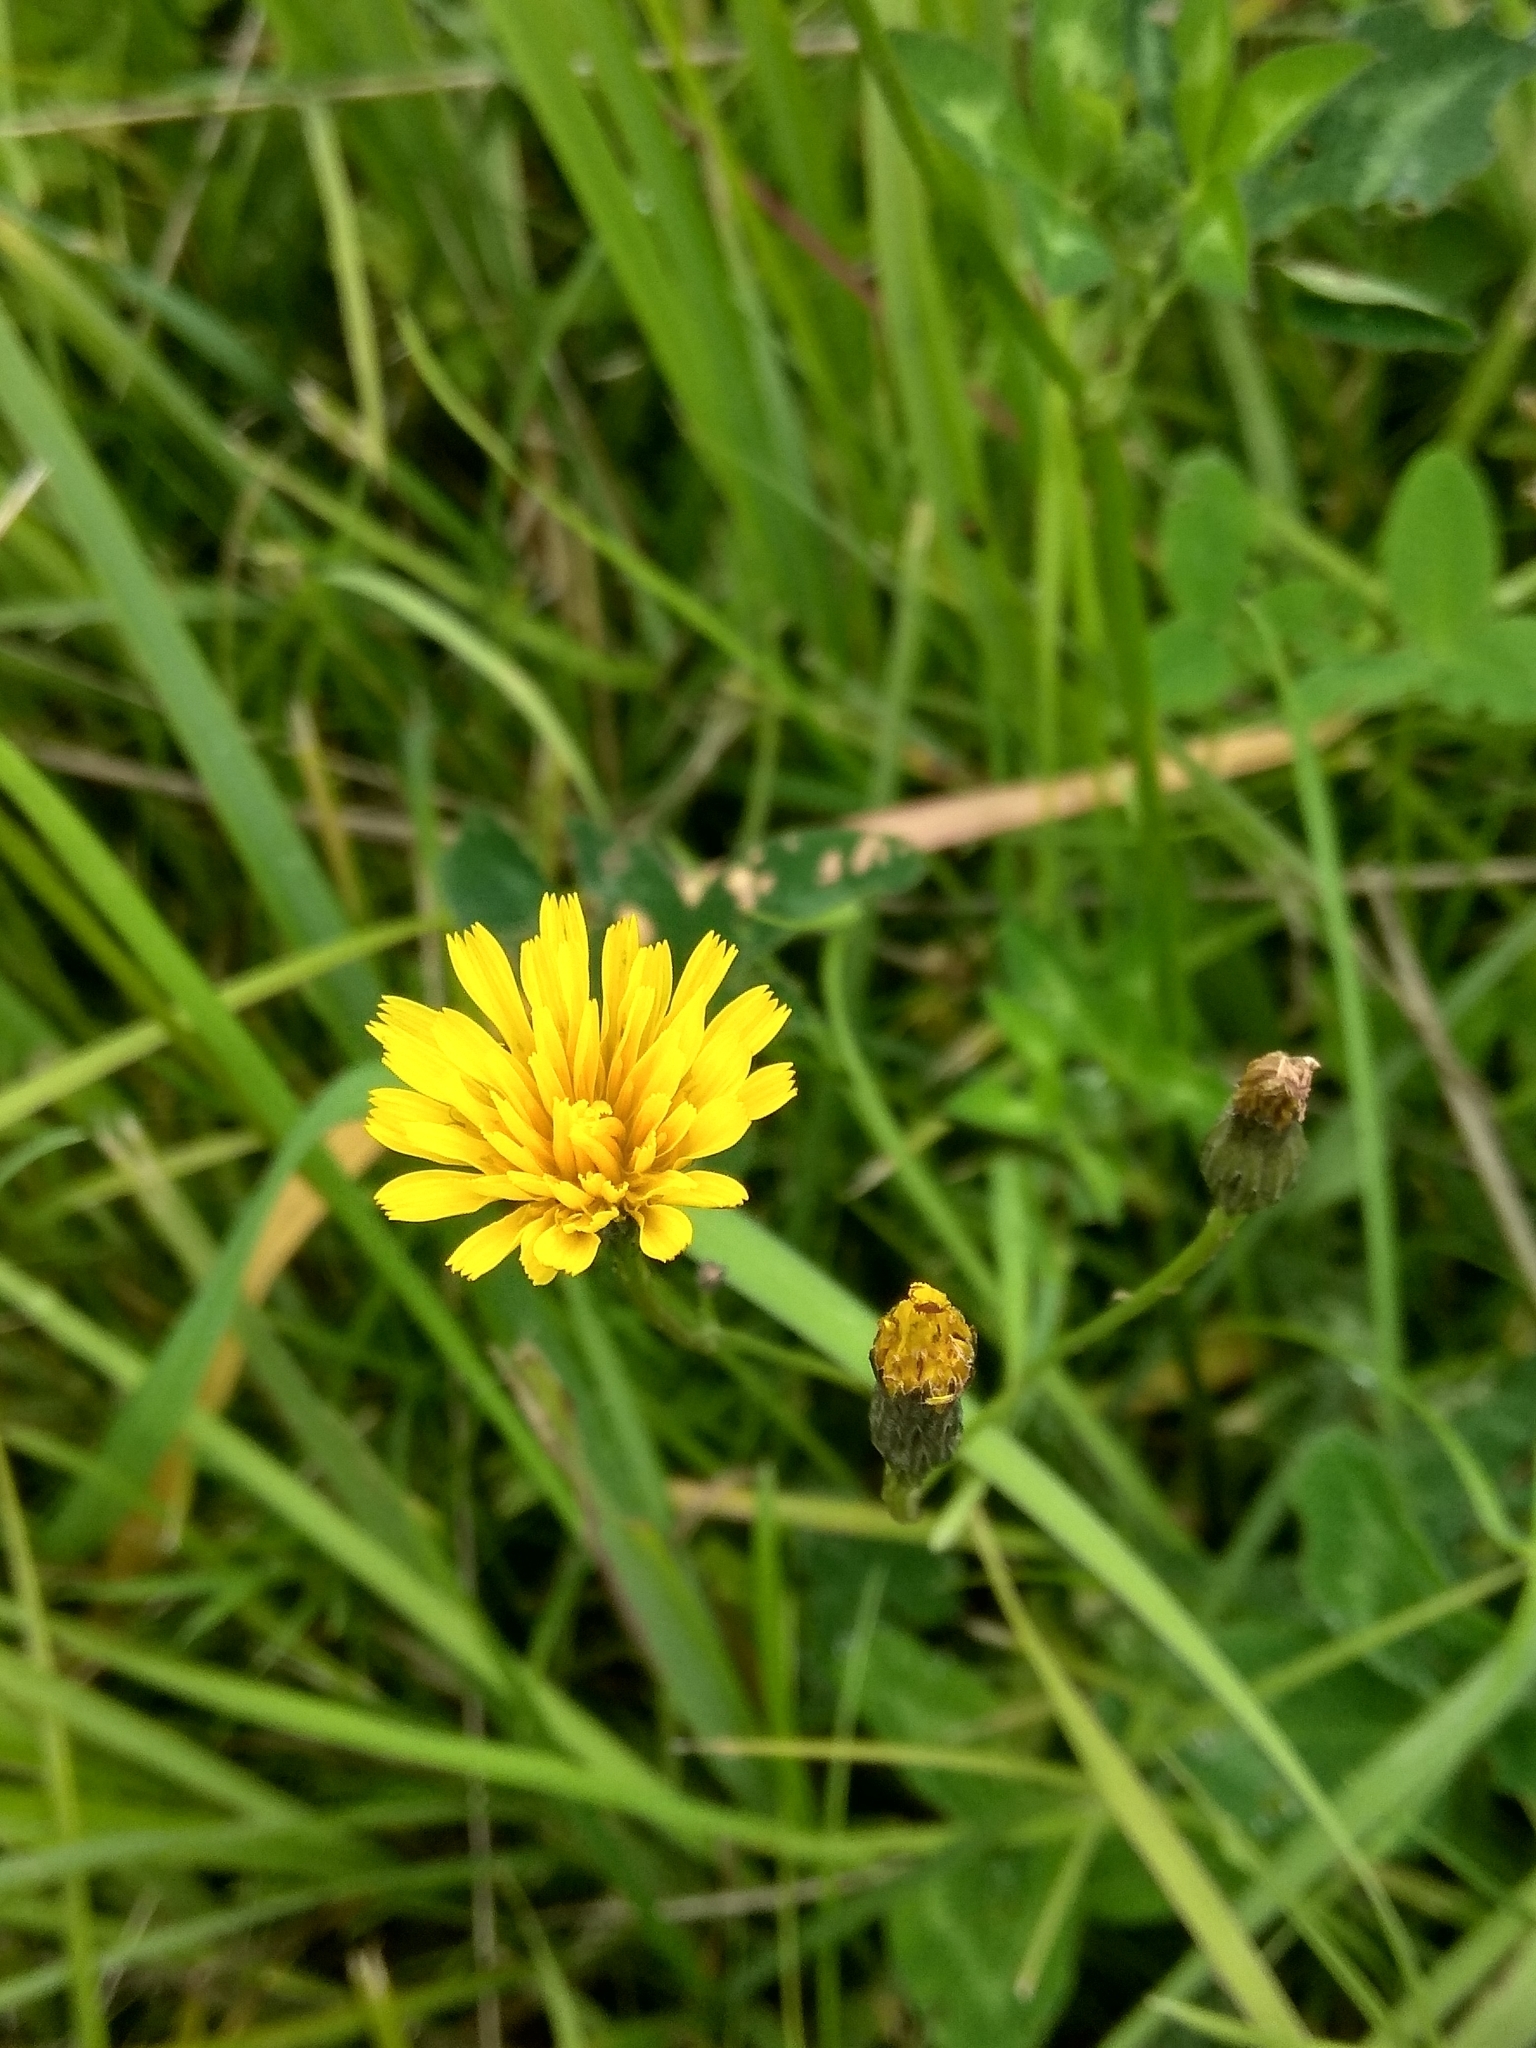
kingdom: Plantae
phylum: Tracheophyta
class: Magnoliopsida
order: Asterales
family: Asteraceae
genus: Scorzoneroides
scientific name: Scorzoneroides autumnalis
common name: Autumn hawkbit
